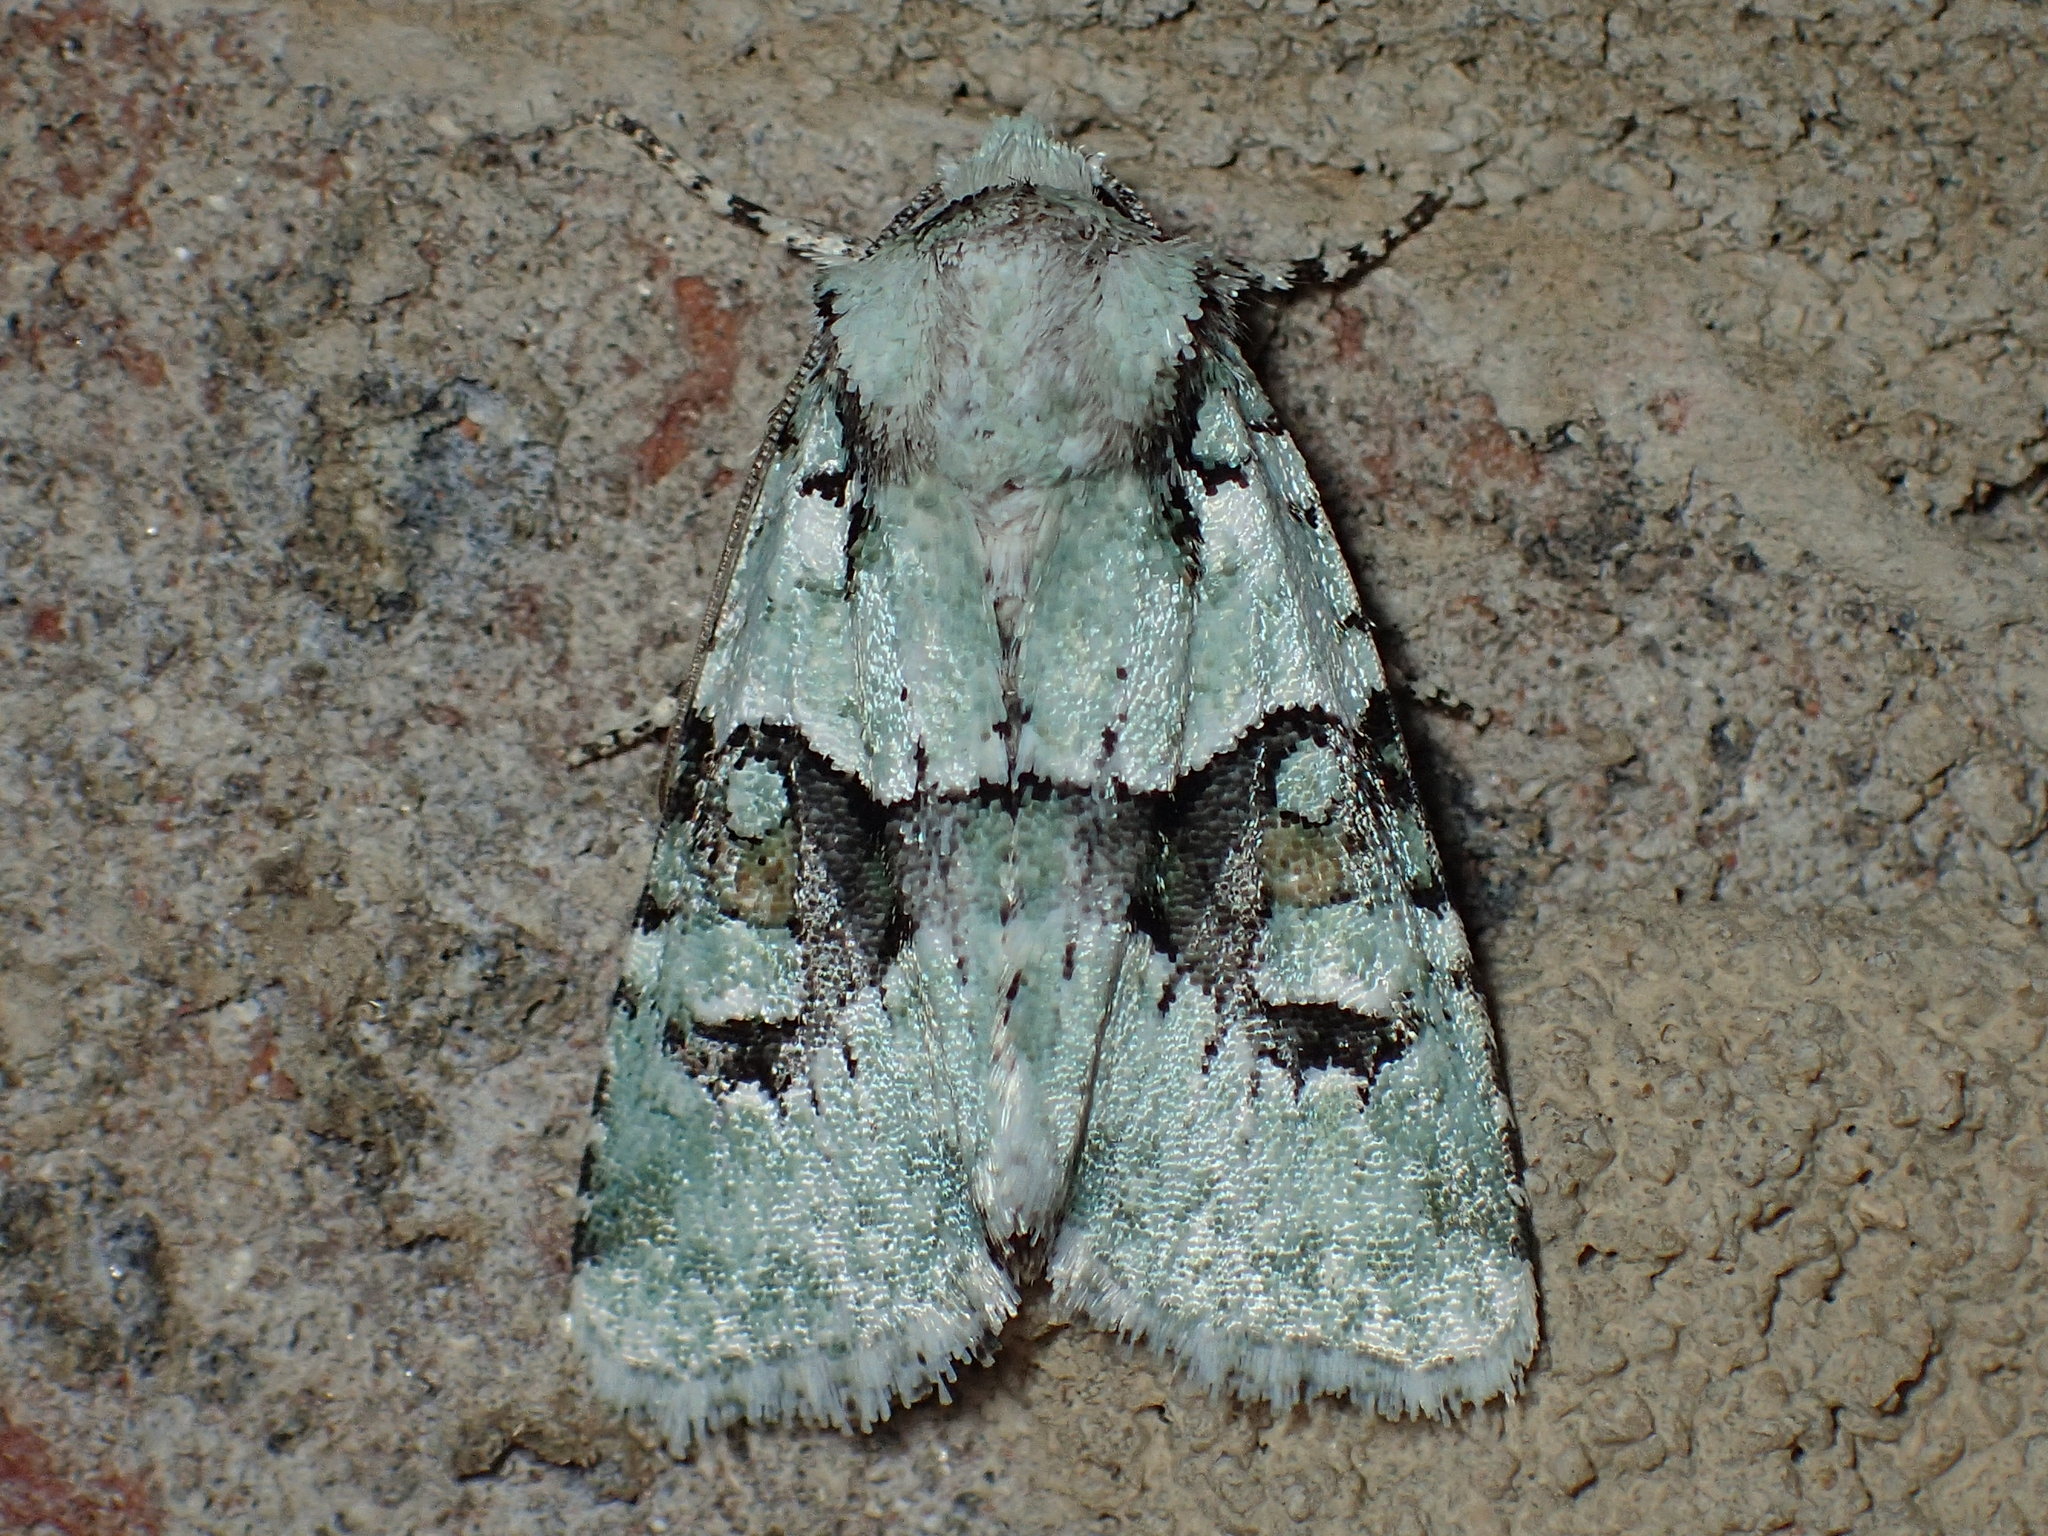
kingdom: Animalia
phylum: Arthropoda
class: Insecta
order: Lepidoptera
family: Noctuidae
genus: Lacinipolia
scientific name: Lacinipolia implicata
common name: Implicit arches
